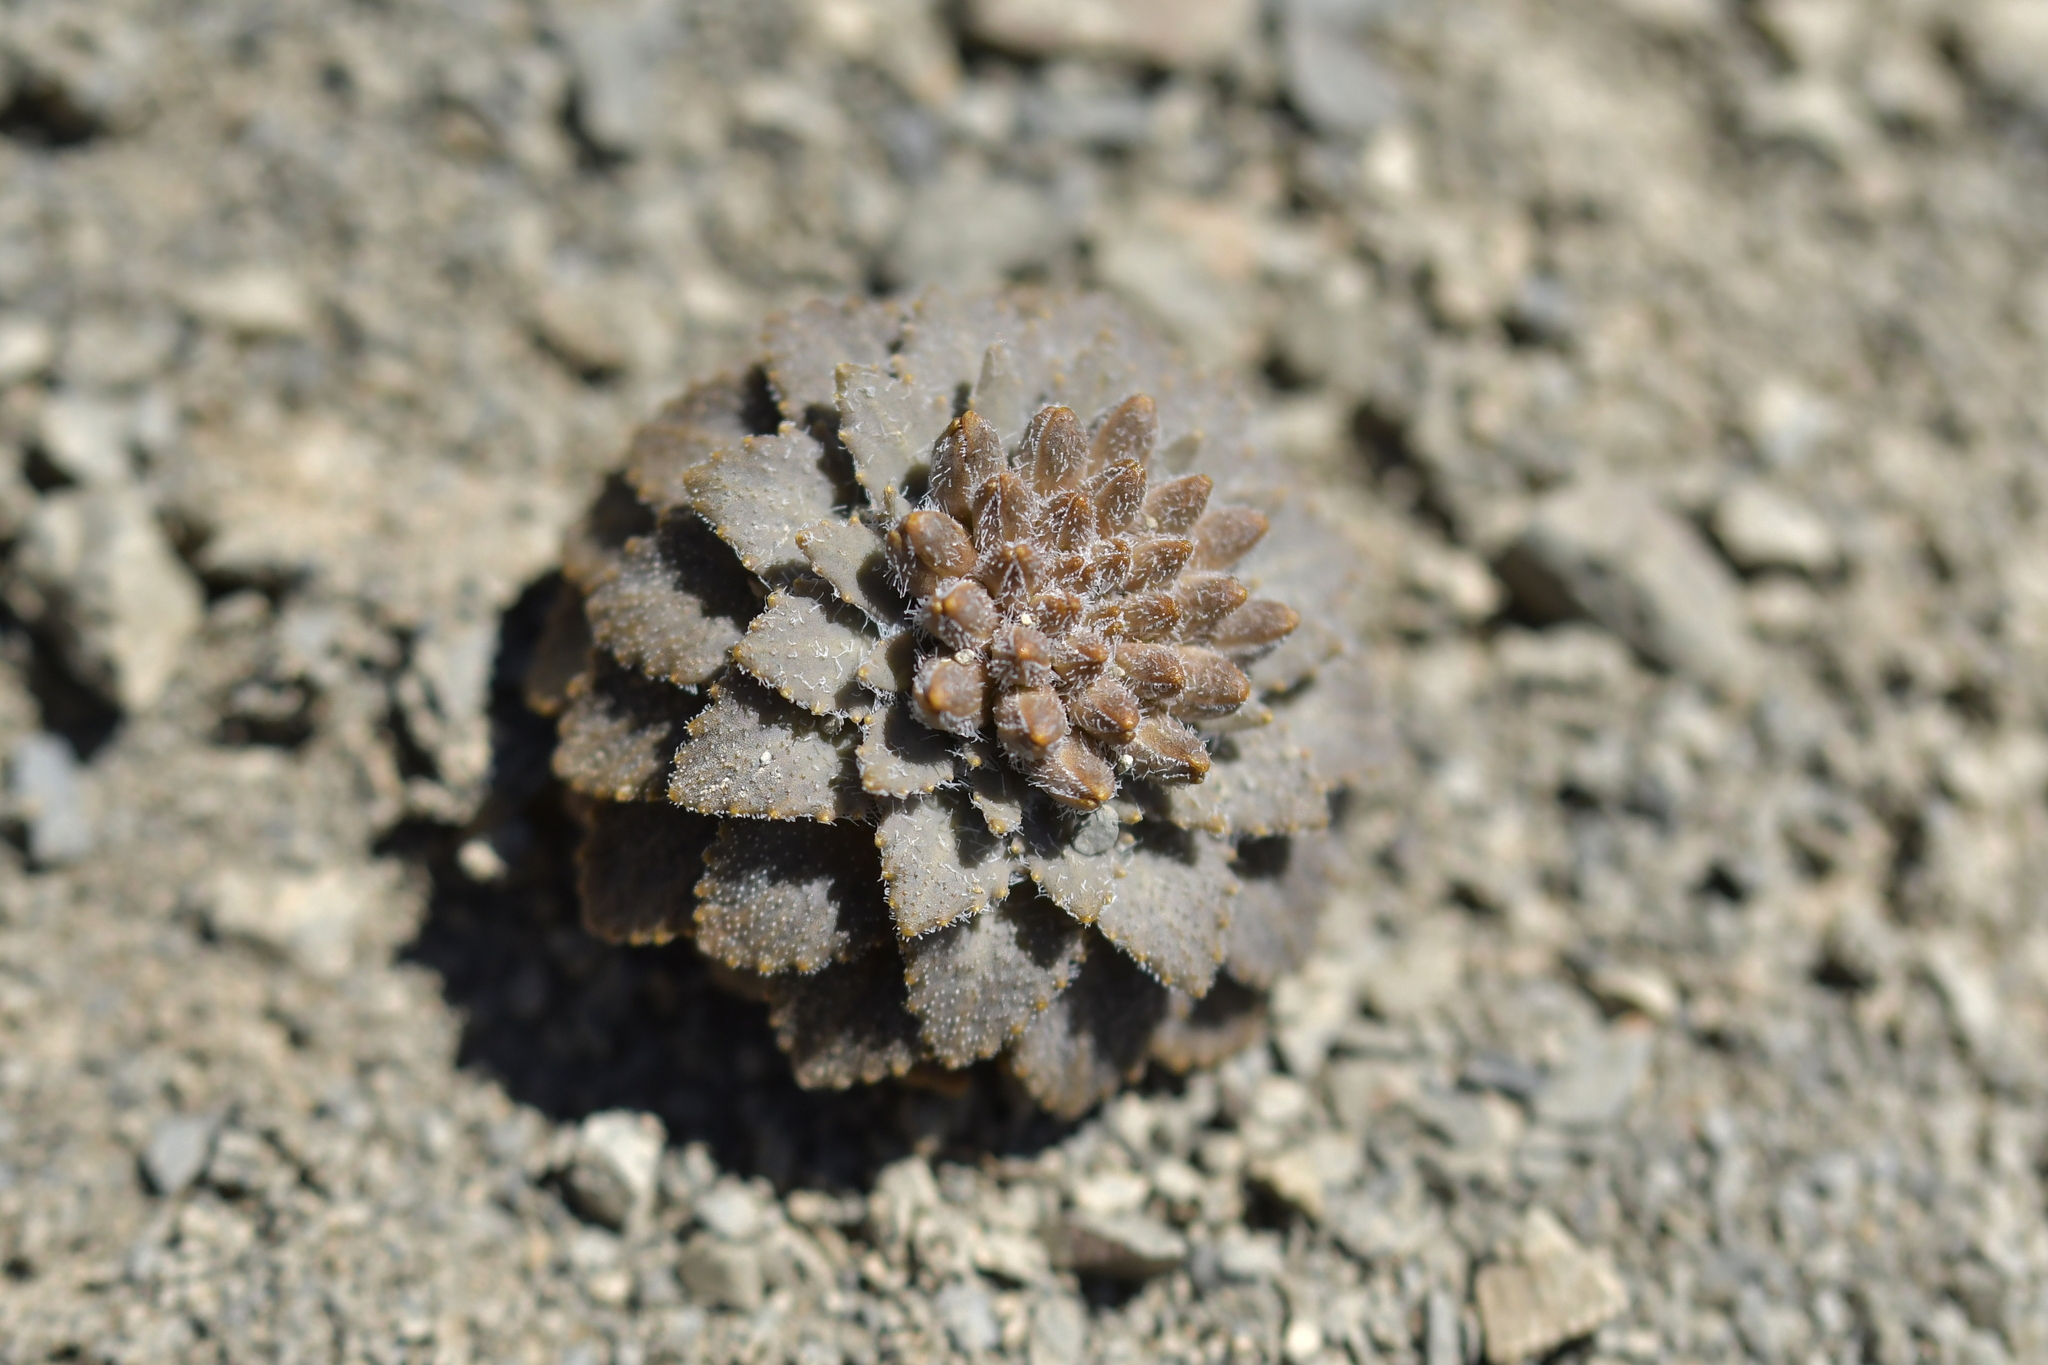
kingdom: Plantae
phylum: Tracheophyta
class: Magnoliopsida
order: Brassicales
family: Brassicaceae
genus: Notothlaspi
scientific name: Notothlaspi rosulatum
